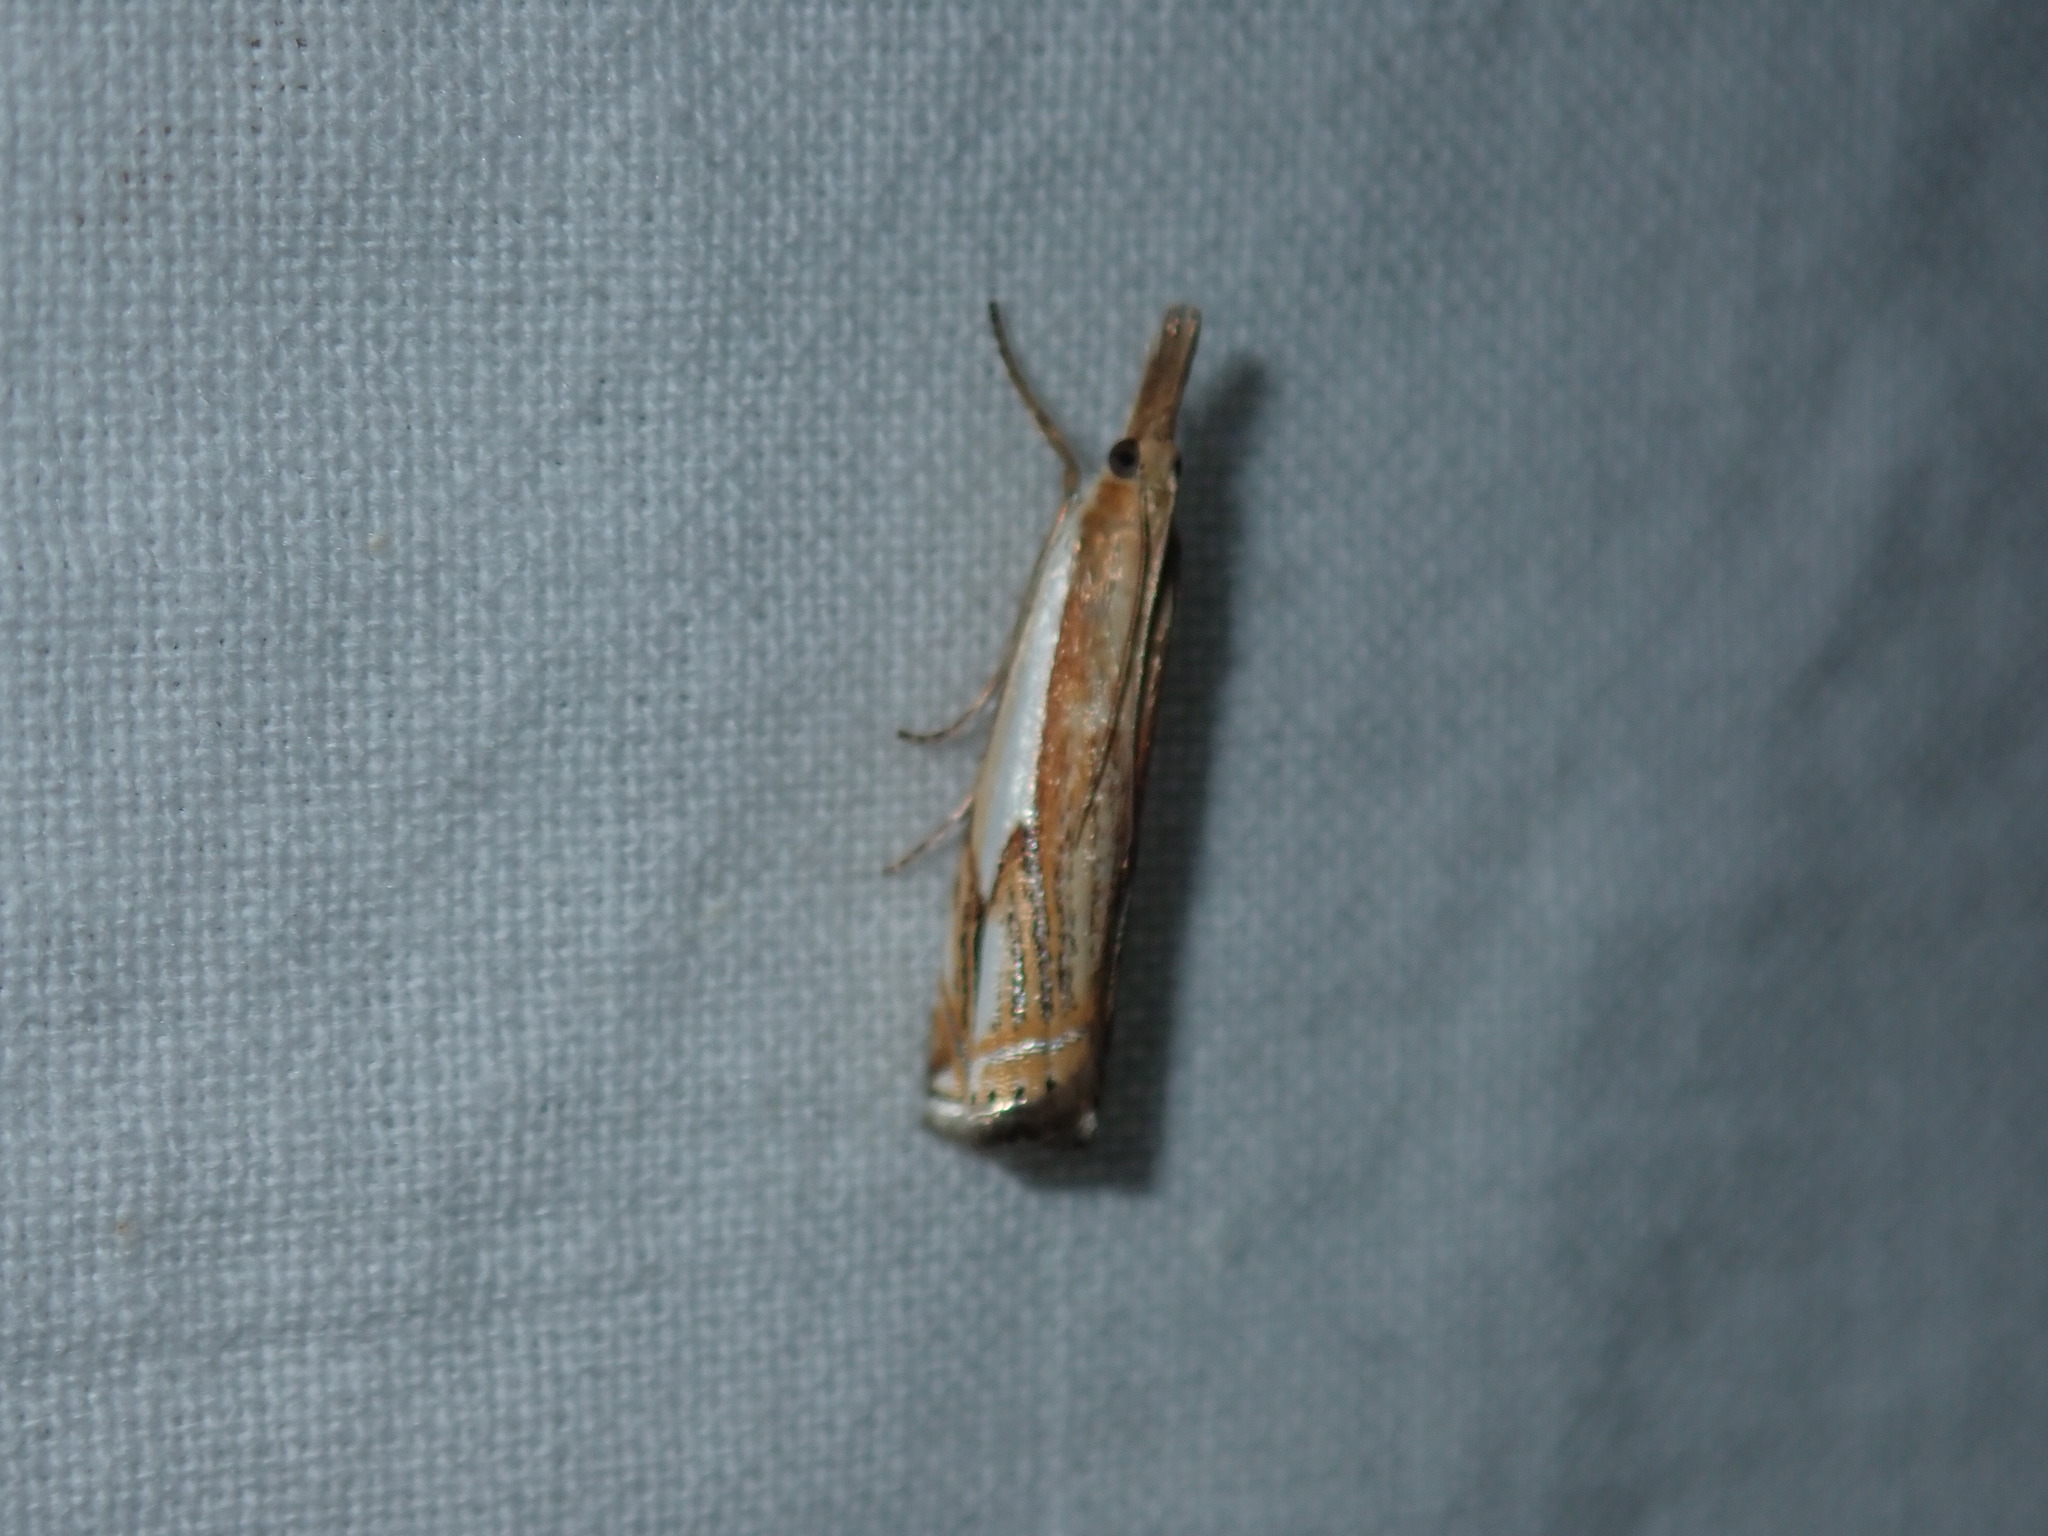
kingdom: Animalia
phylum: Arthropoda
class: Insecta
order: Lepidoptera
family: Crambidae
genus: Crambus
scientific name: Crambus agitatellus
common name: Double-banded grass-veneer
